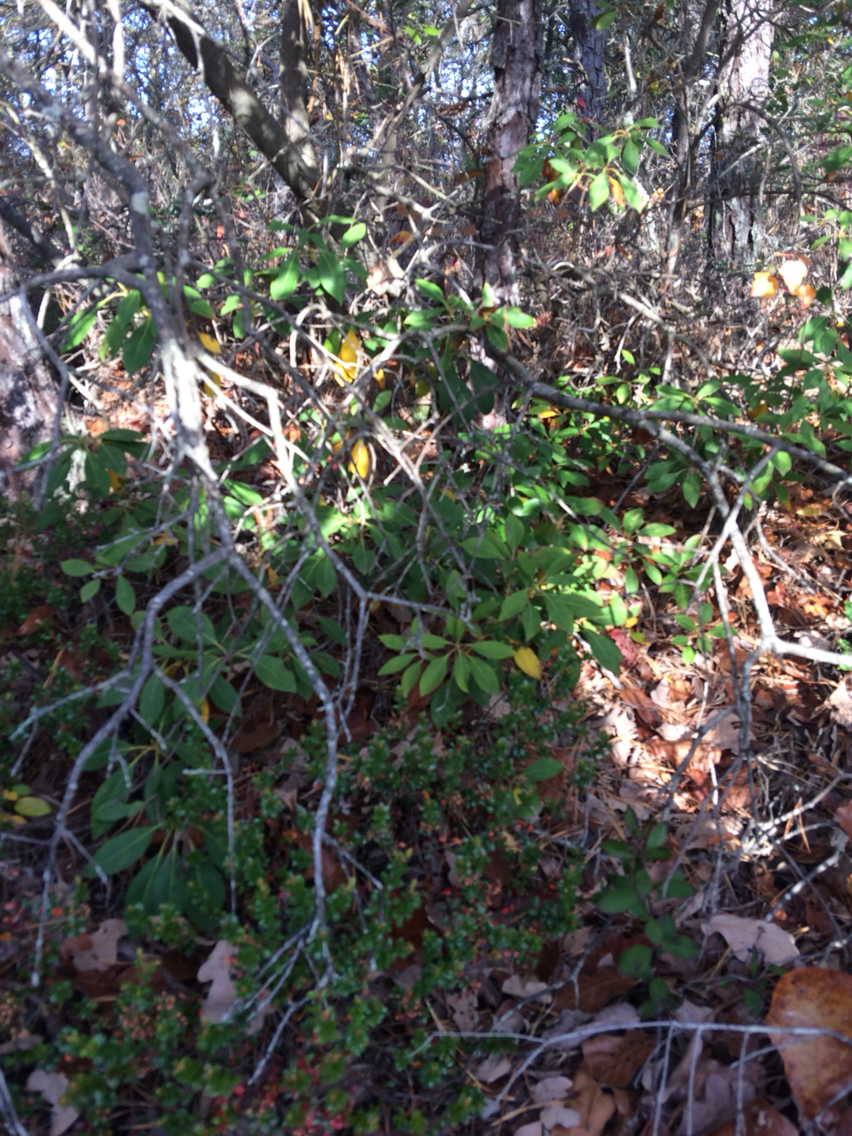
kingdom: Plantae
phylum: Tracheophyta
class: Magnoliopsida
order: Ericales
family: Ericaceae
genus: Kalmia
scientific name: Kalmia latifolia
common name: Mountain-laurel
